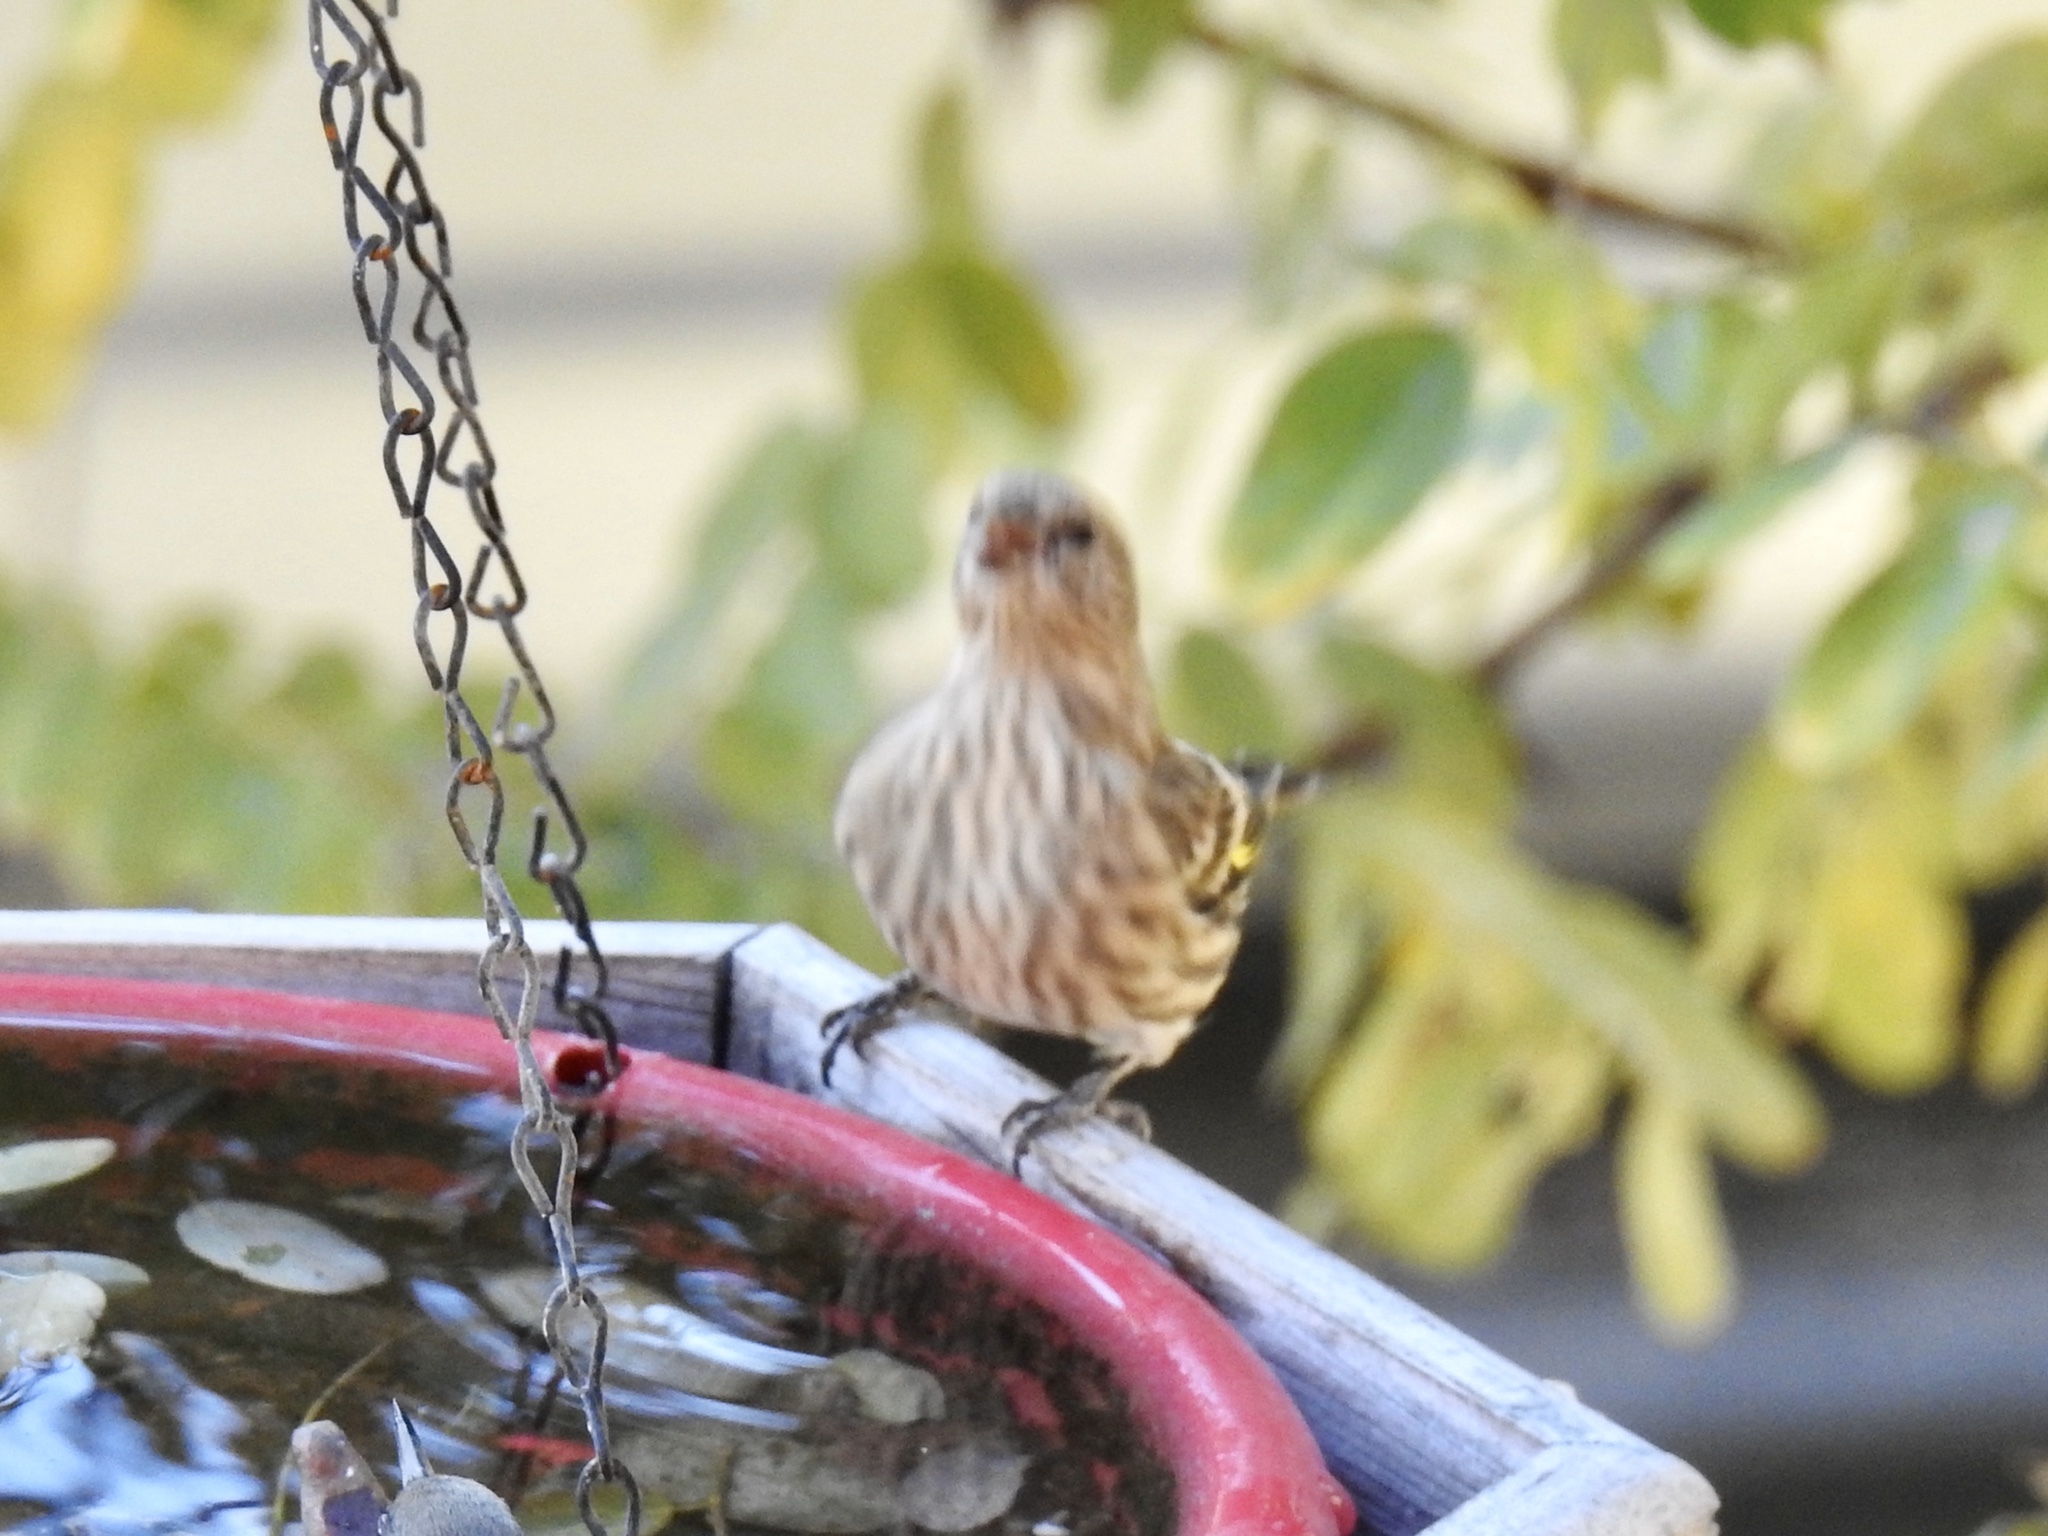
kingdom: Animalia
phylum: Chordata
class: Aves
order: Passeriformes
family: Fringillidae
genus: Spinus
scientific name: Spinus pinus
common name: Pine siskin
